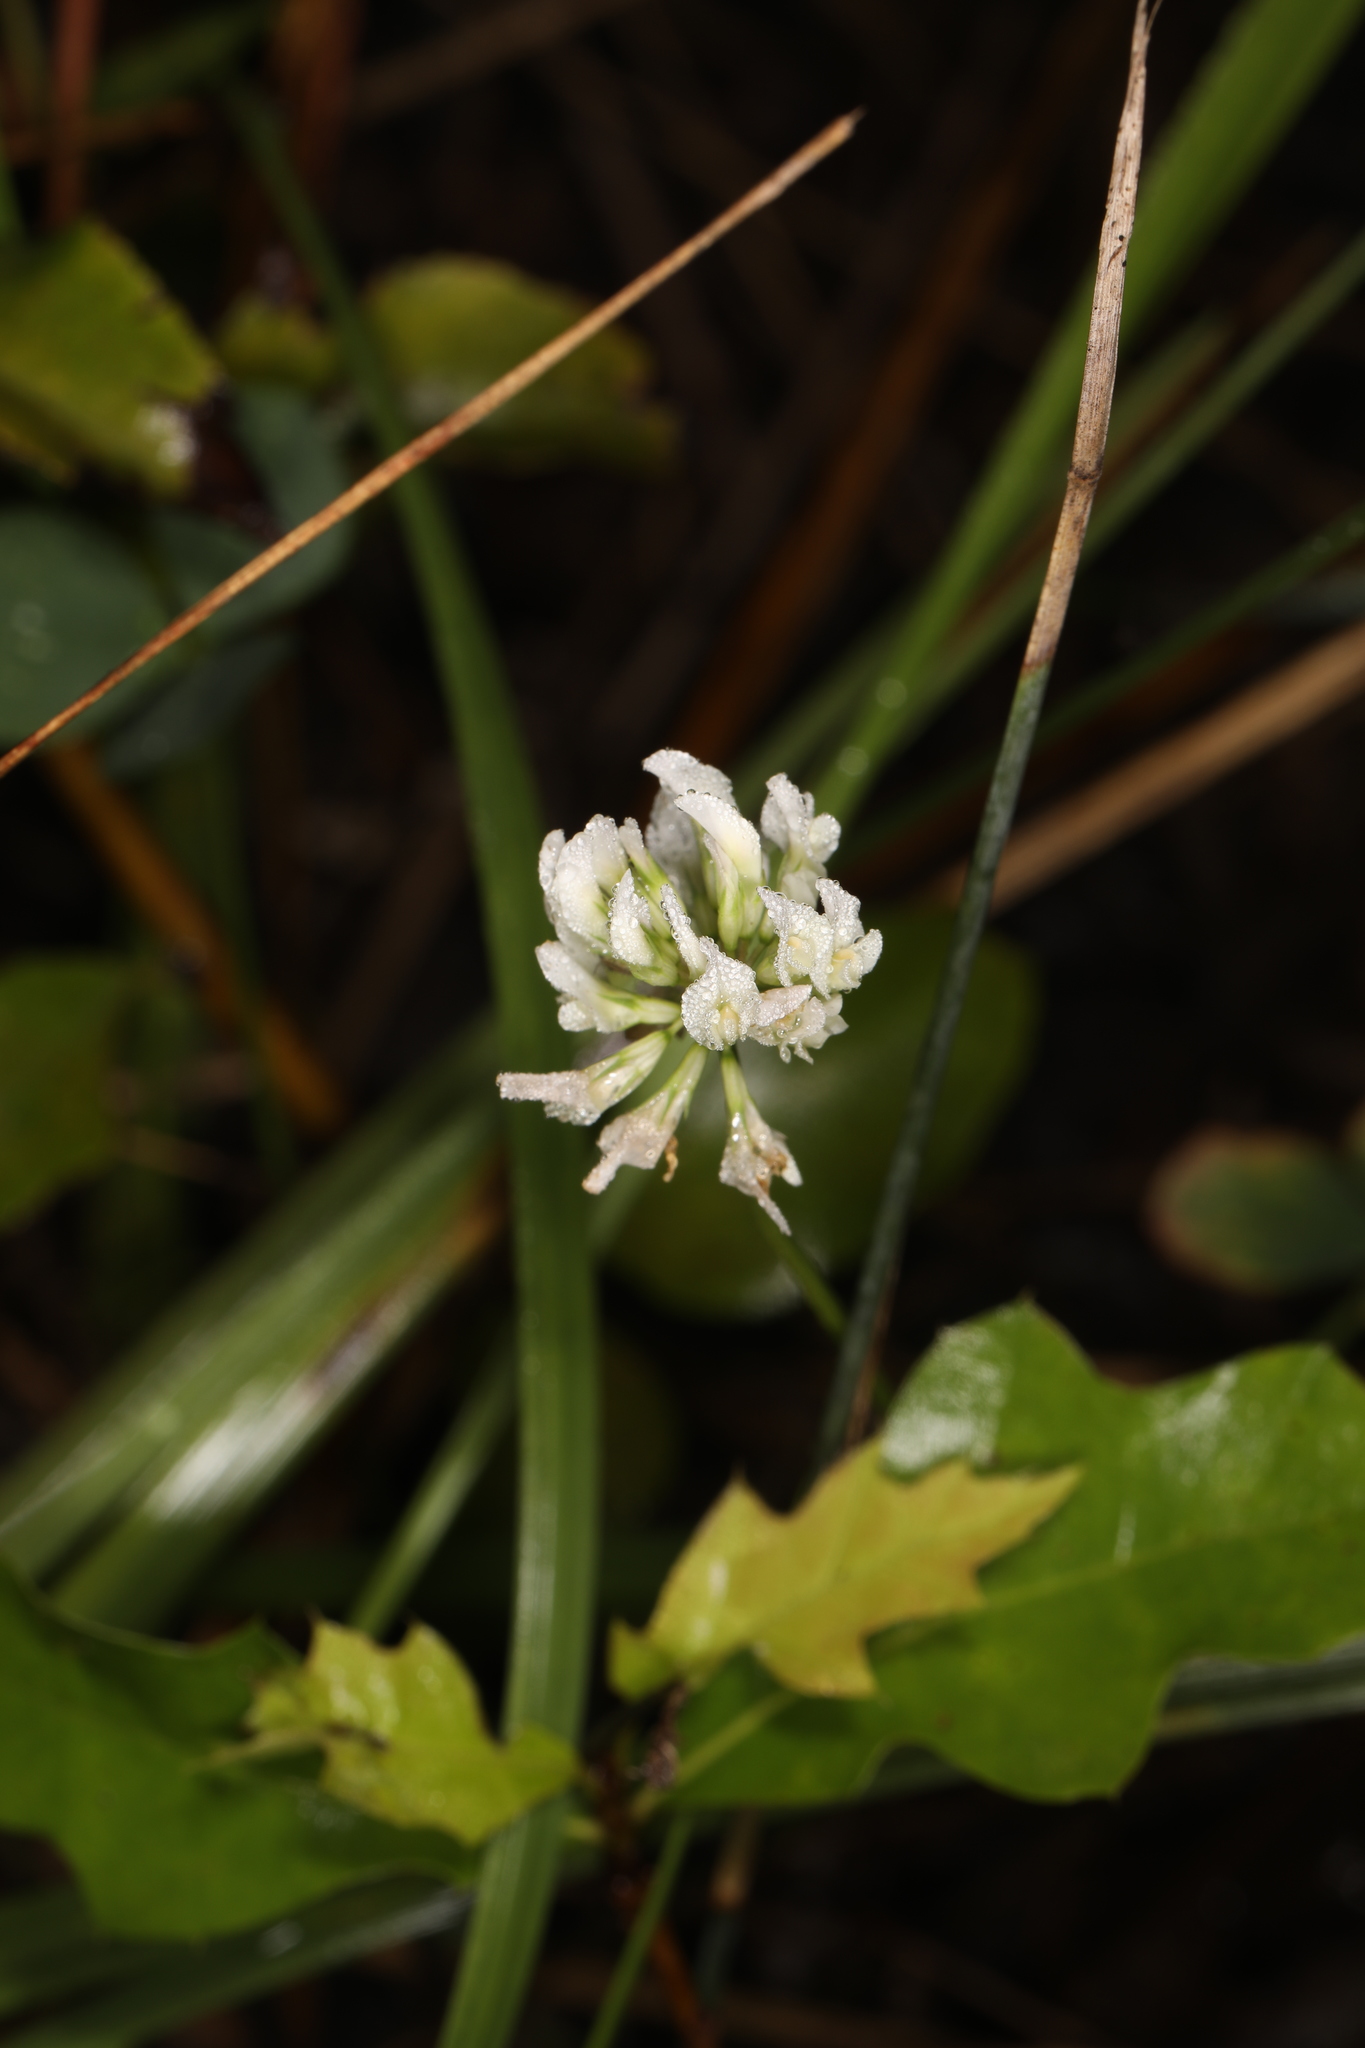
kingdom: Plantae
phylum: Tracheophyta
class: Magnoliopsida
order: Fabales
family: Fabaceae
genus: Trifolium
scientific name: Trifolium repens
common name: White clover
